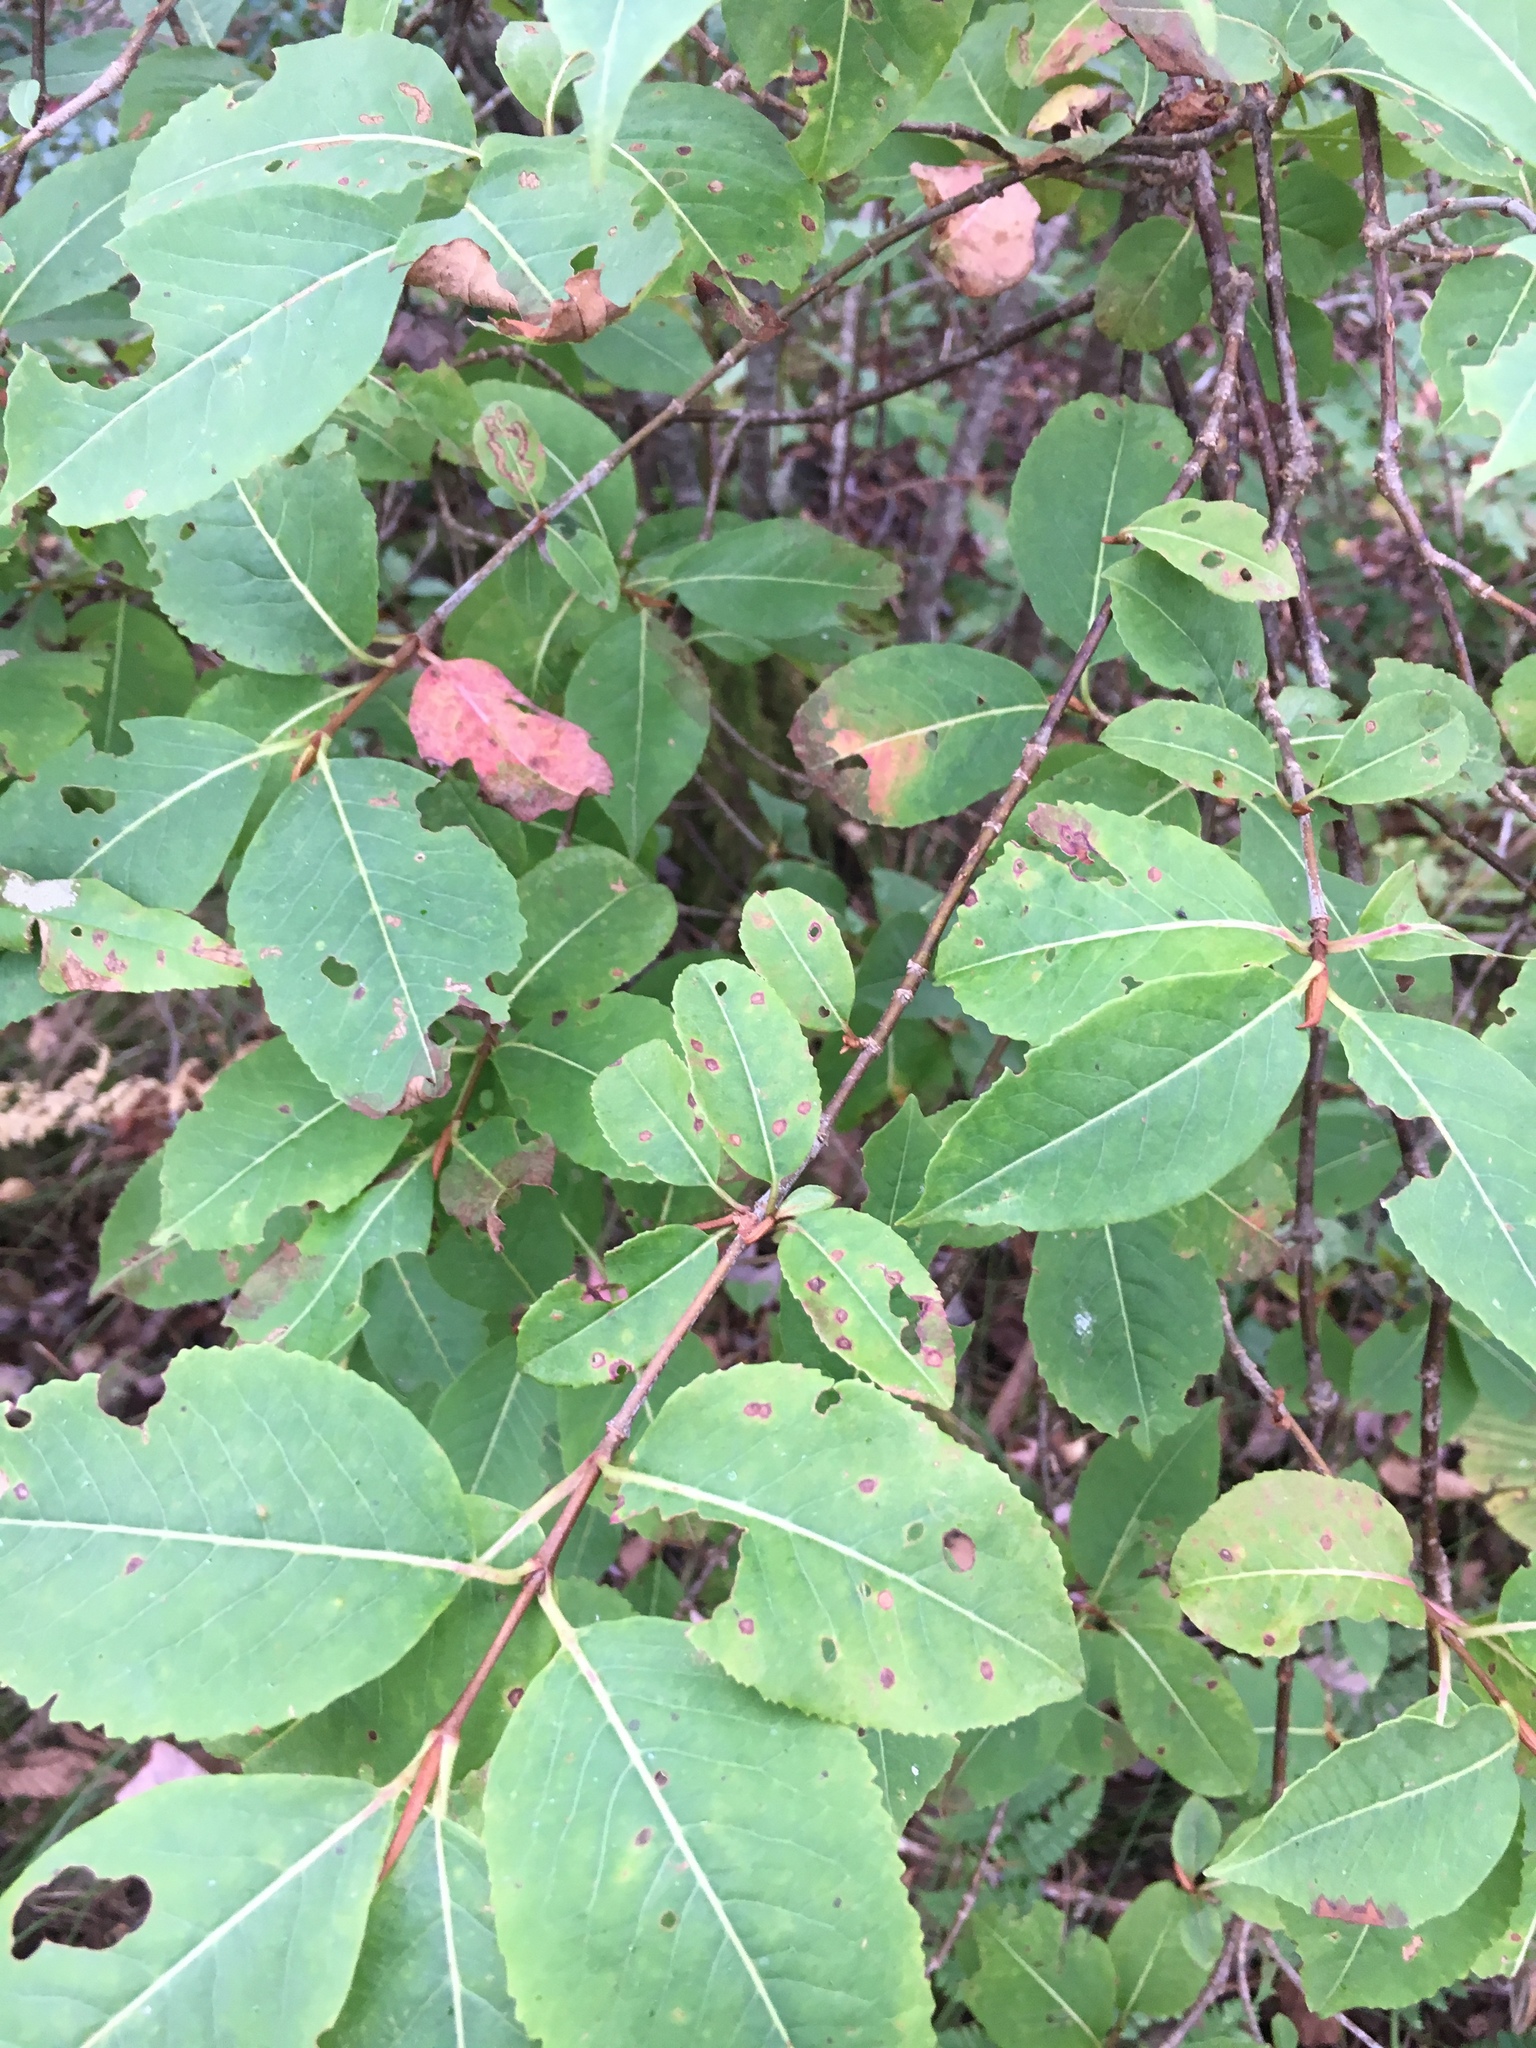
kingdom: Plantae
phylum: Tracheophyta
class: Magnoliopsida
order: Dipsacales
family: Viburnaceae
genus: Viburnum
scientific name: Viburnum cassinoides
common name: Swamp haw
